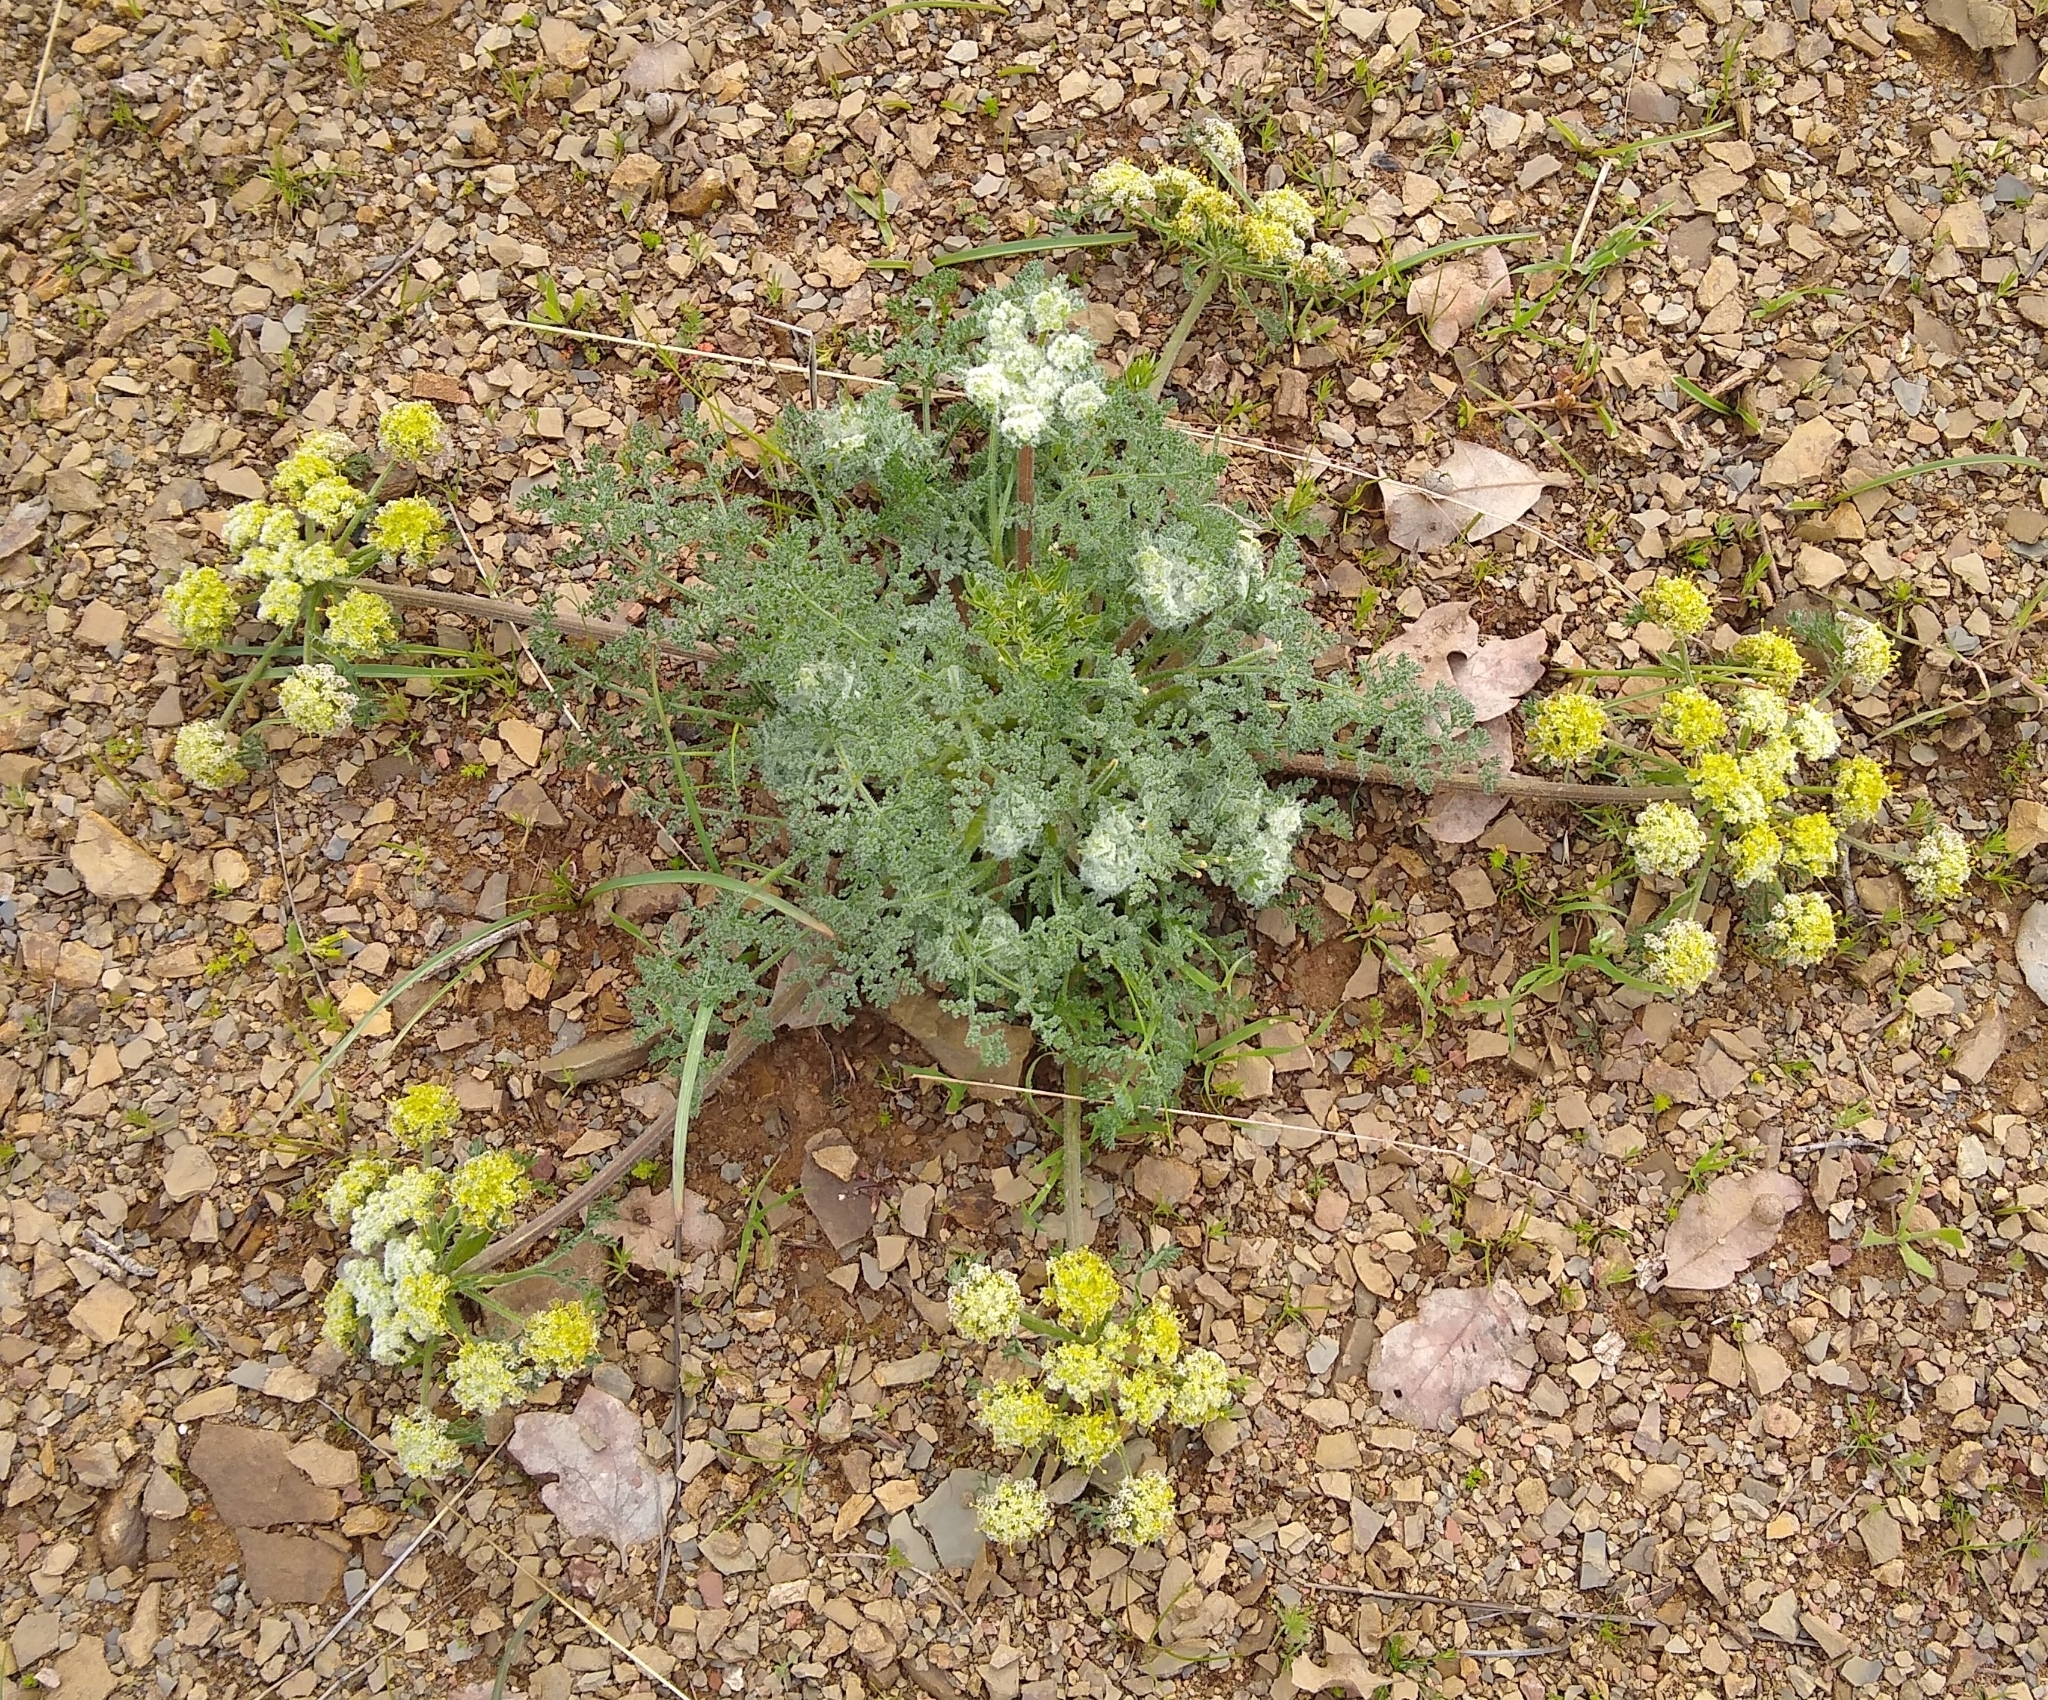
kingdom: Plantae
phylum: Tracheophyta
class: Magnoliopsida
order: Apiales
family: Apiaceae
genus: Lomatium
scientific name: Lomatium dasycarpum
